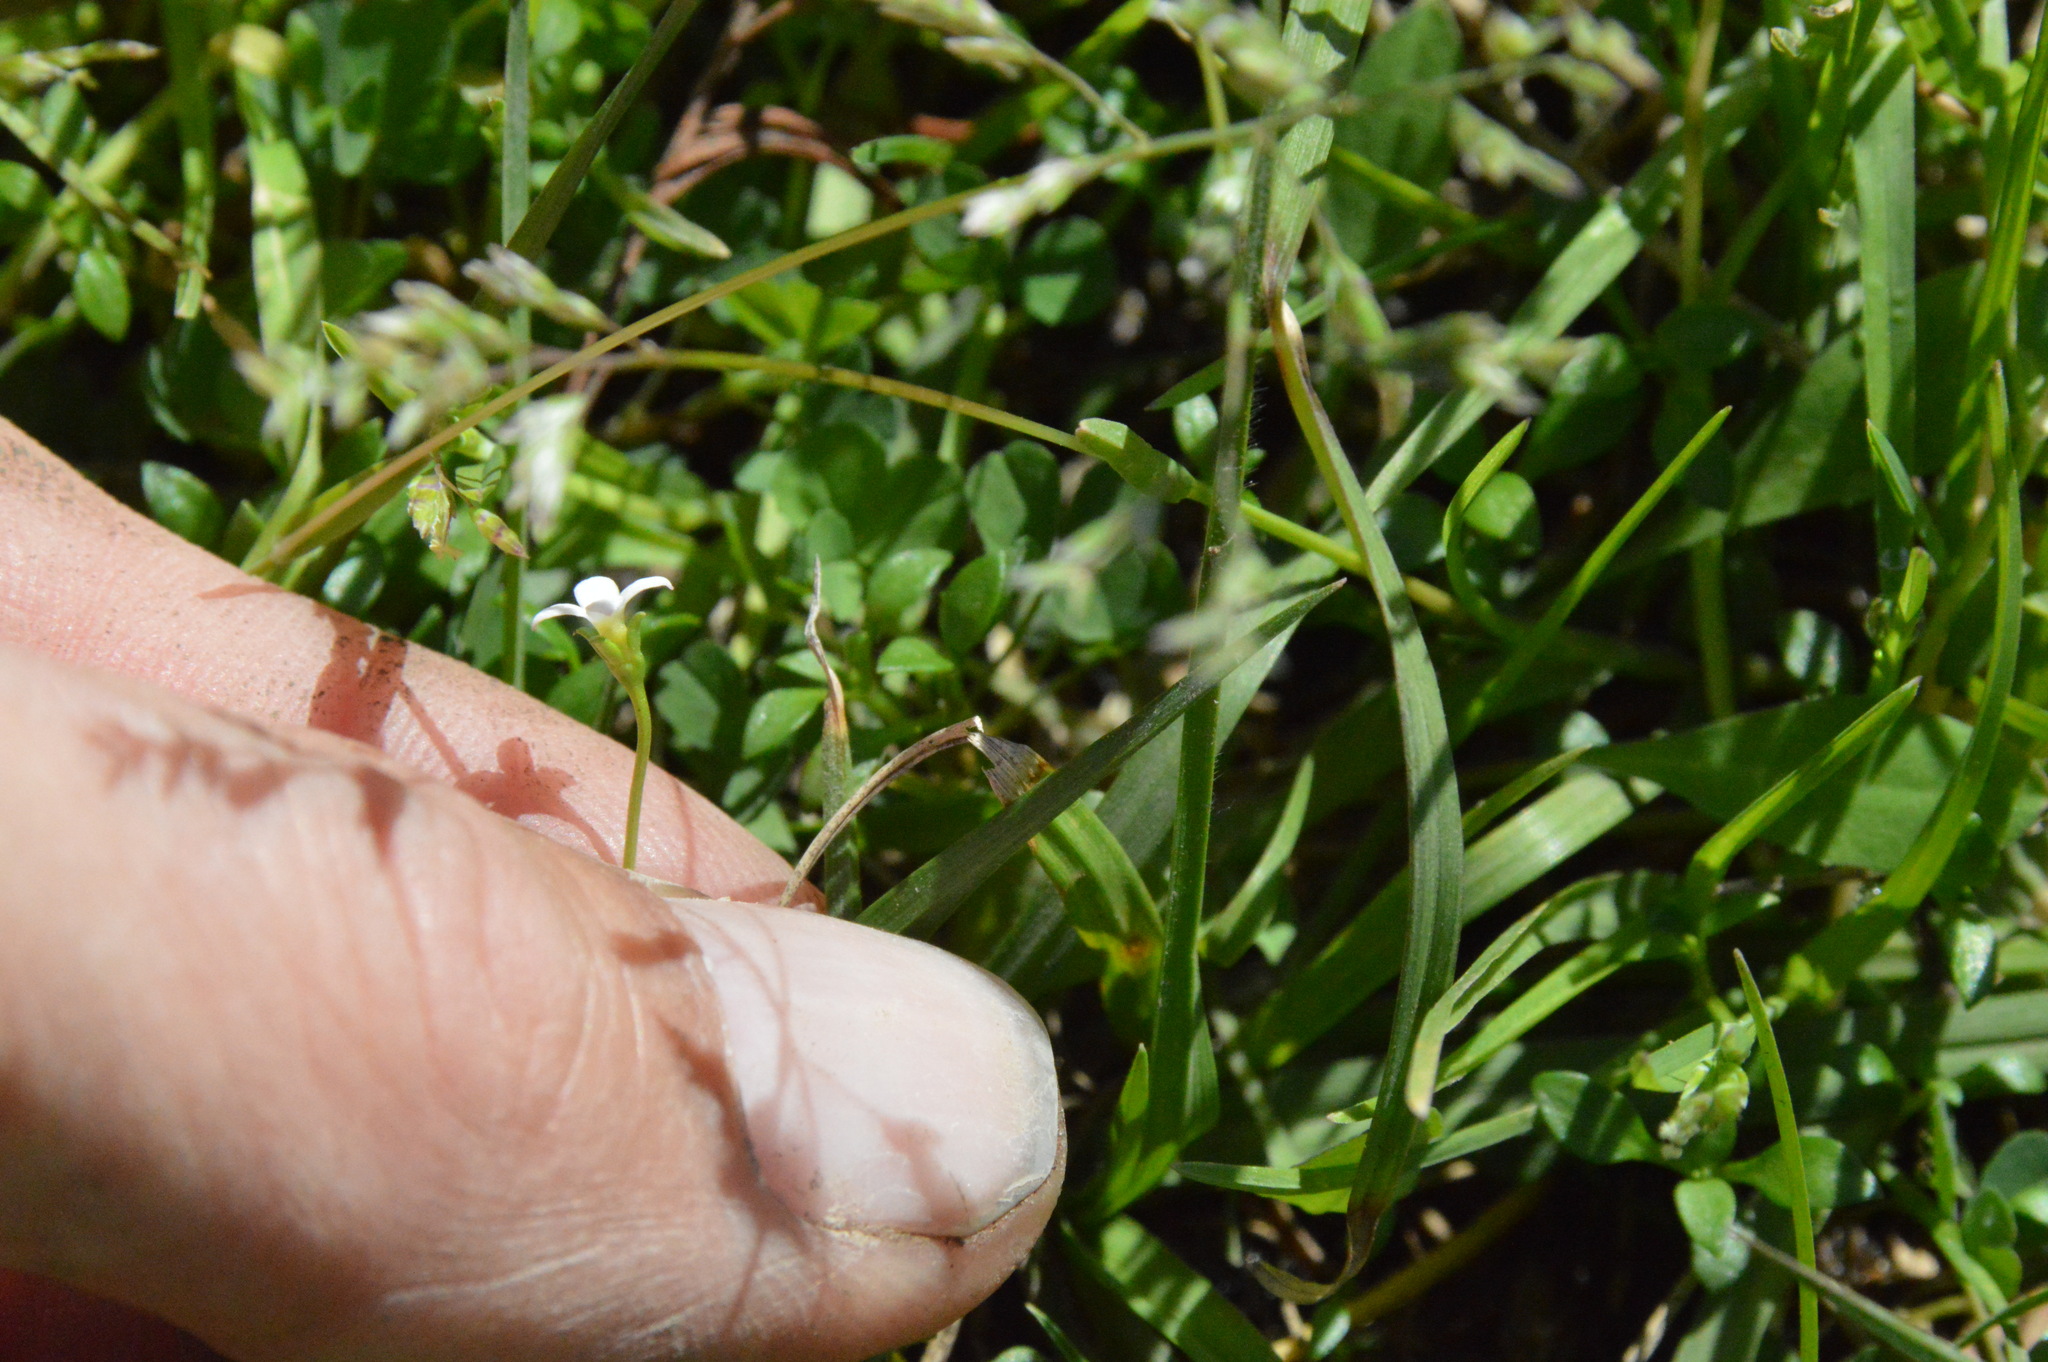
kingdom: Plantae
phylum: Tracheophyta
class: Magnoliopsida
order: Gentianales
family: Rubiaceae
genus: Houstonia
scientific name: Houstonia micrantha
